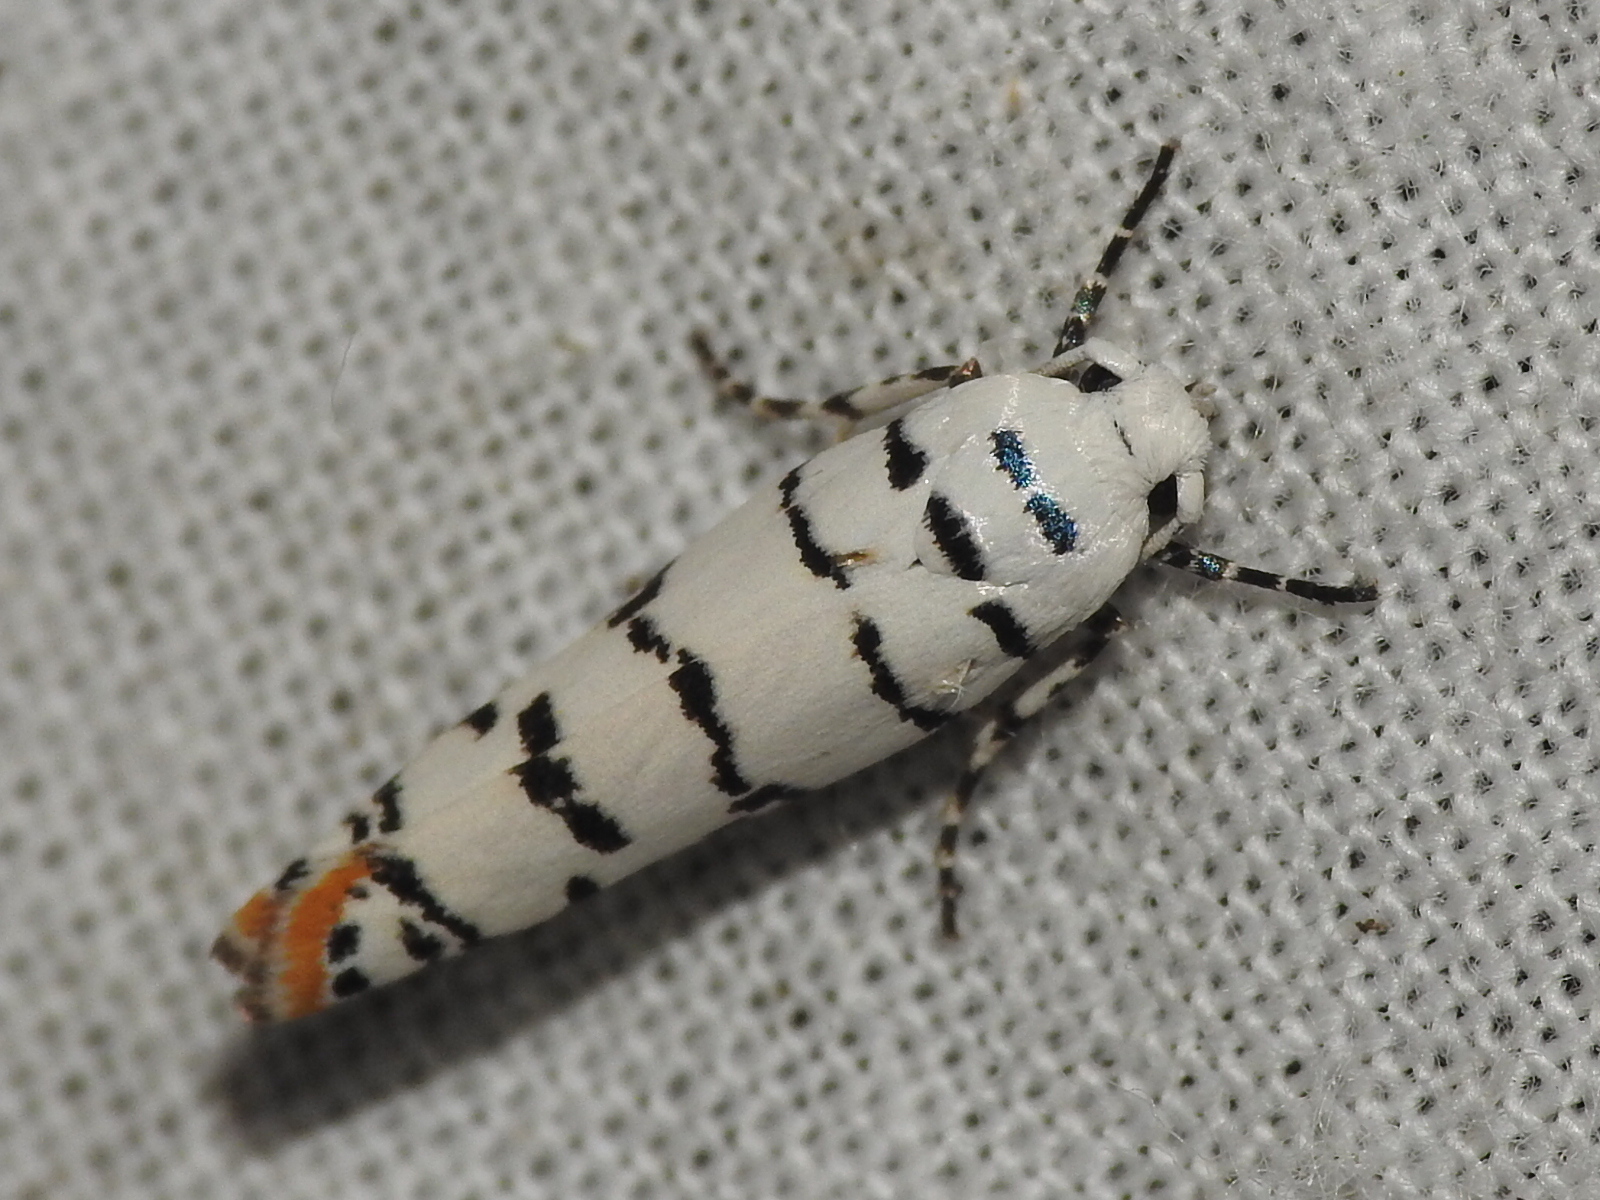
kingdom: Animalia
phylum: Arthropoda
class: Insecta
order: Lepidoptera
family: Ethmiidae
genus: Ethmia
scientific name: Ethmia delliella
